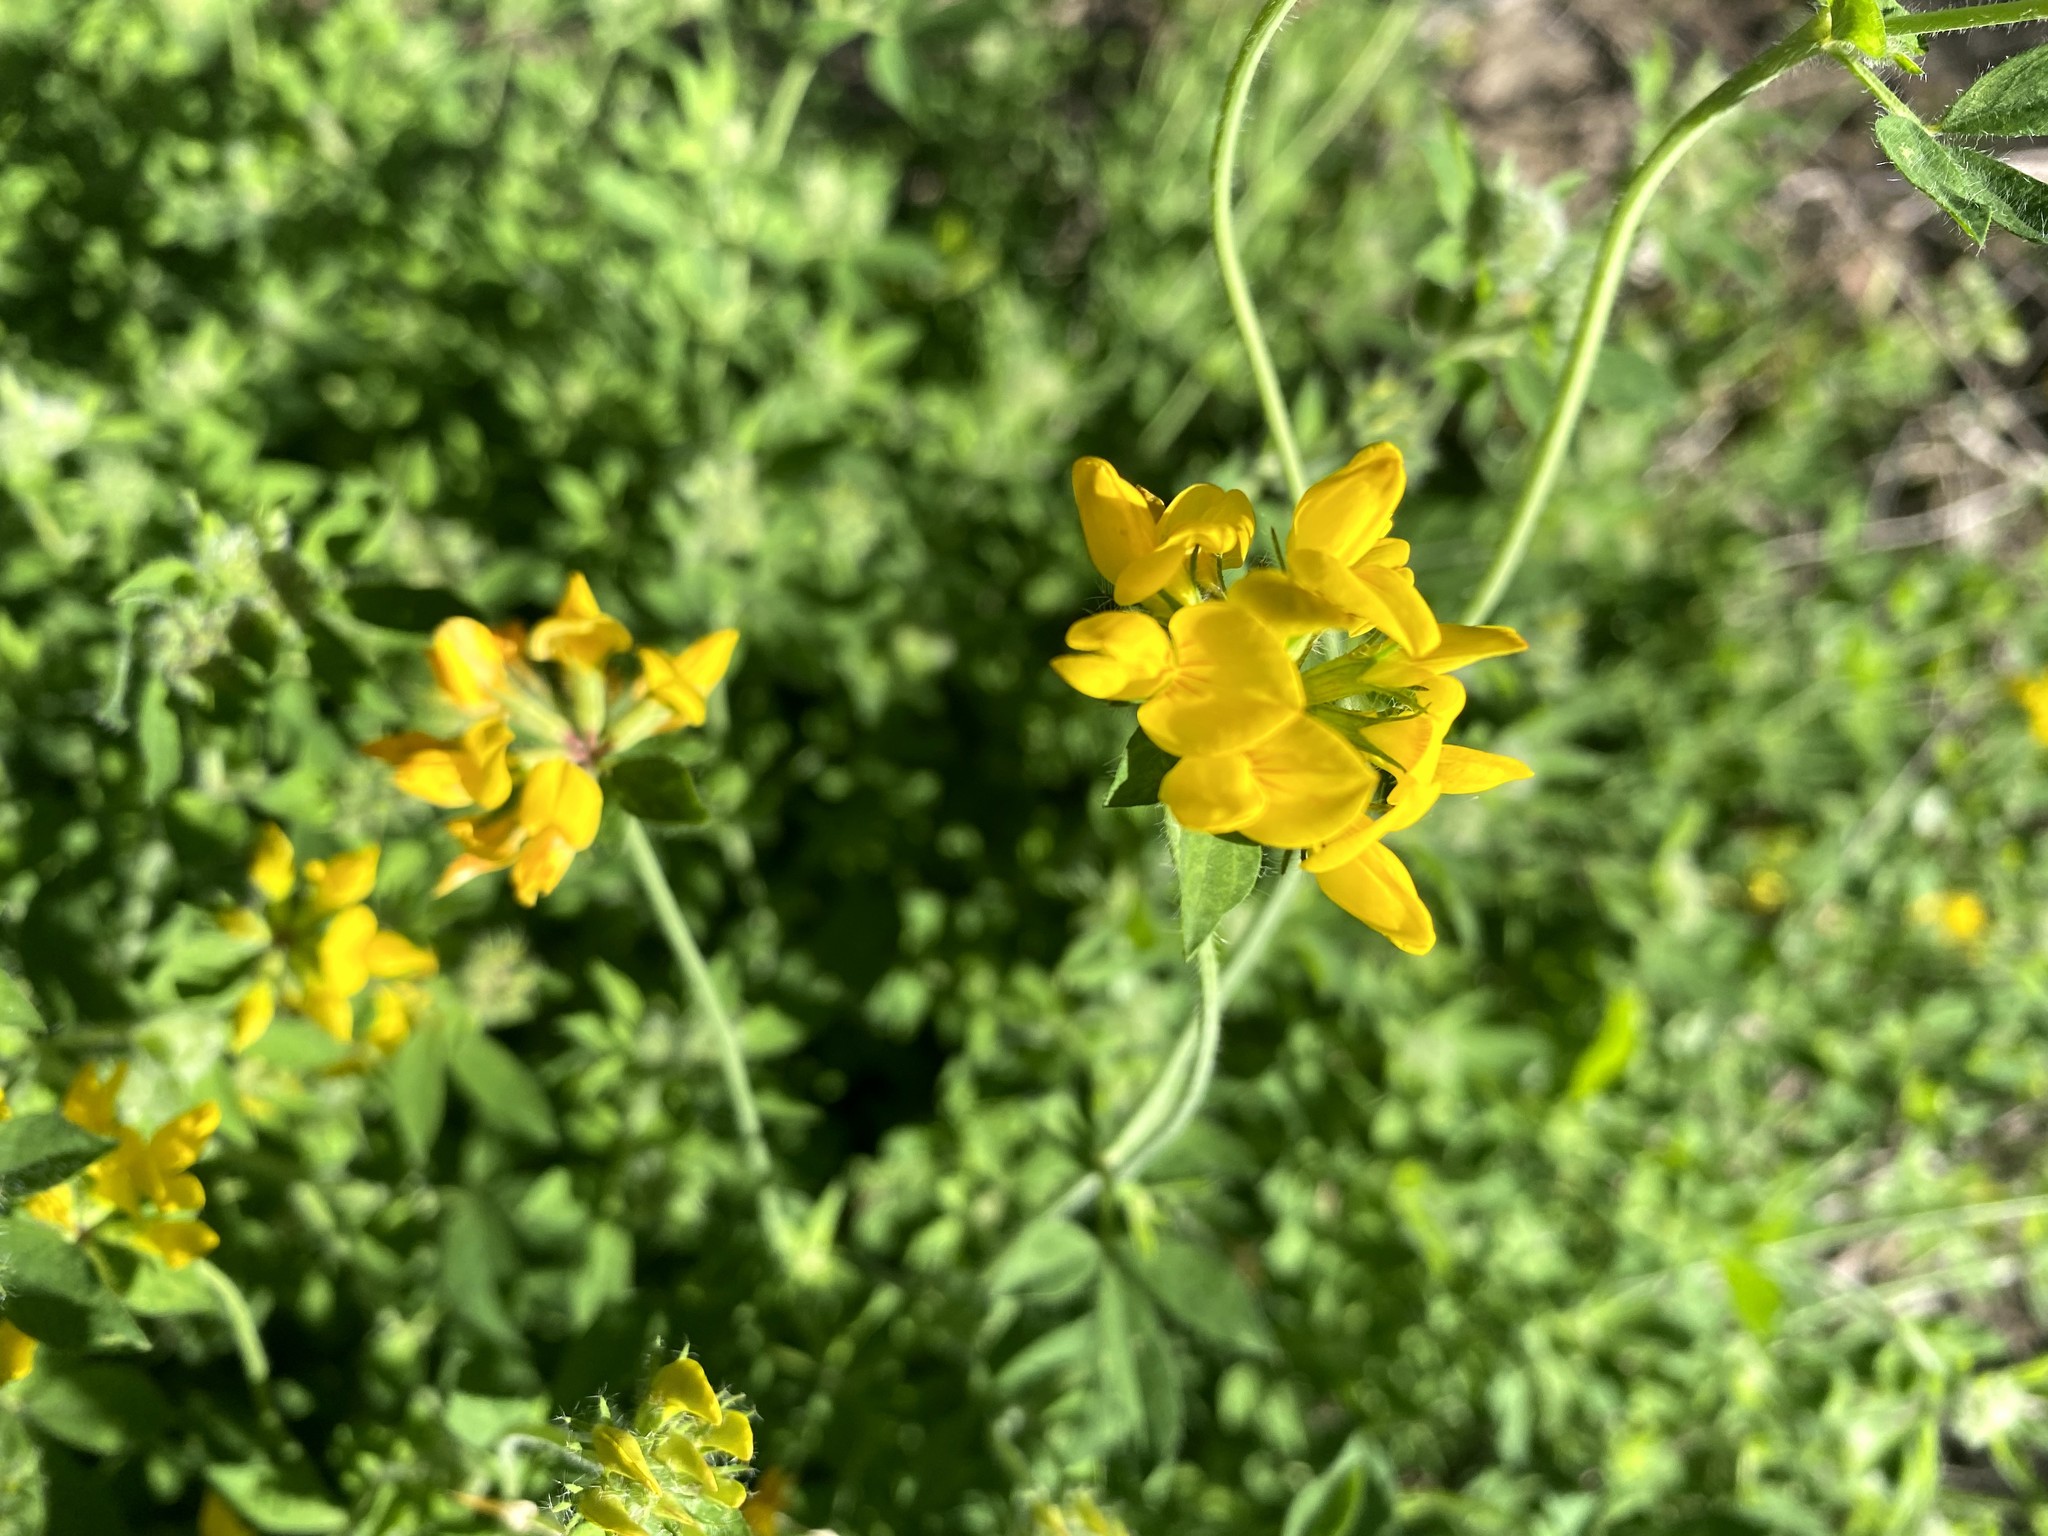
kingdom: Plantae
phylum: Tracheophyta
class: Magnoliopsida
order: Fabales
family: Fabaceae
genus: Lotus
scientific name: Lotus pedunculatus
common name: Greater birdsfoot-trefoil
